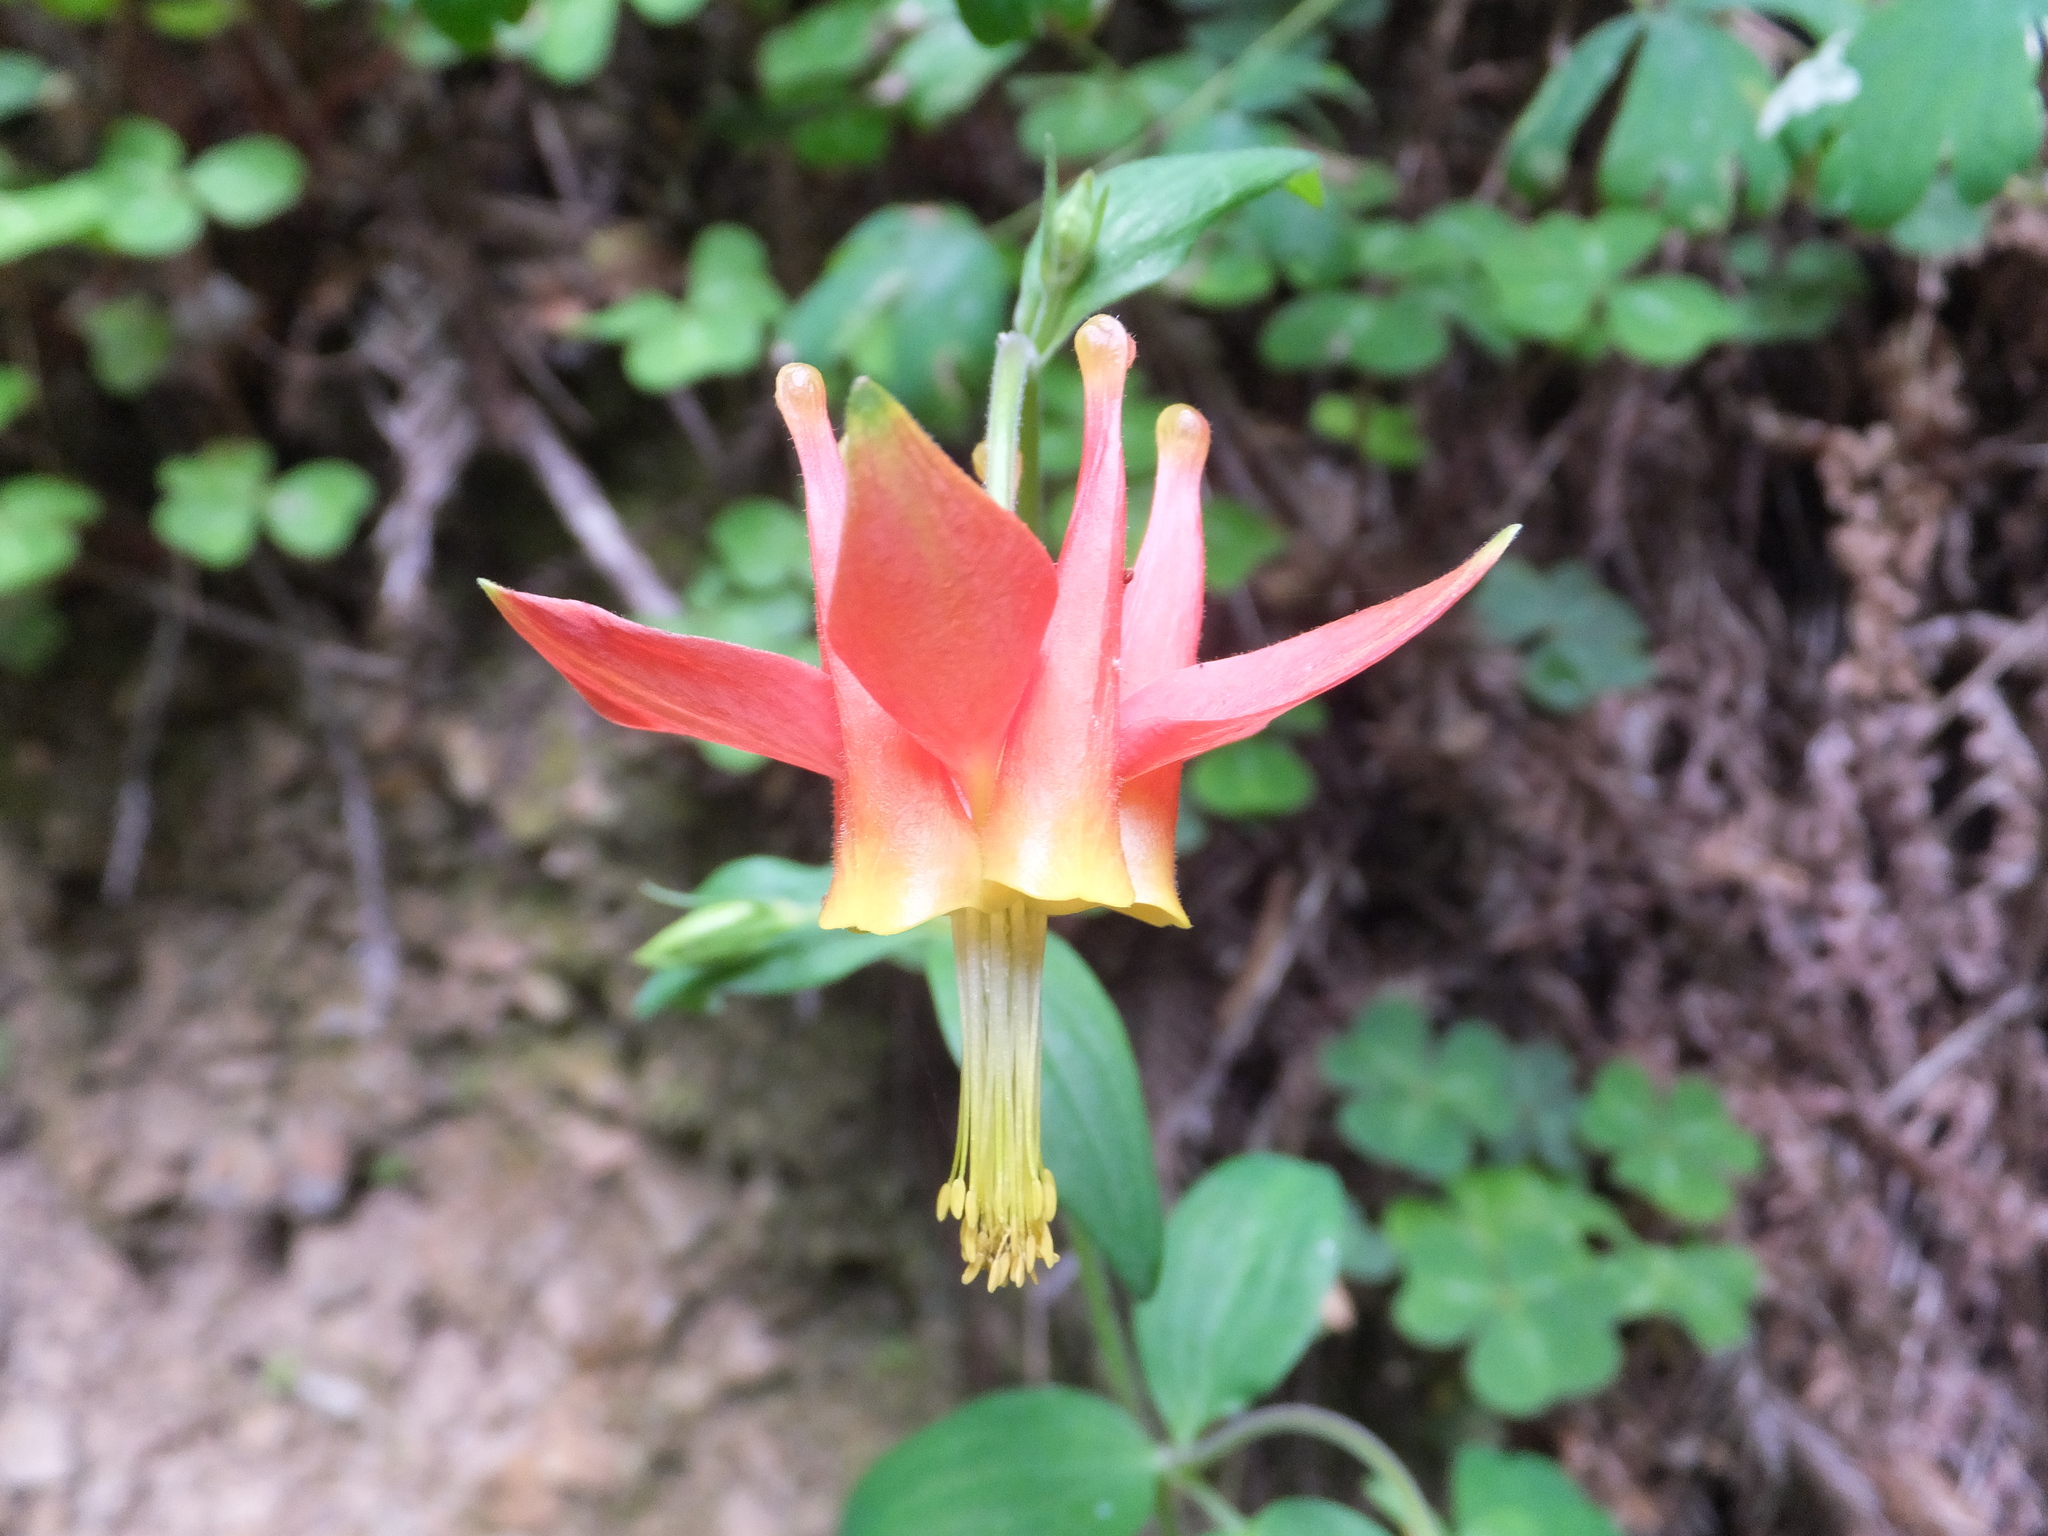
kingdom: Plantae
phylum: Tracheophyta
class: Magnoliopsida
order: Ranunculales
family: Ranunculaceae
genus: Aquilegia
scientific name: Aquilegia formosa
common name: Sitka columbine
